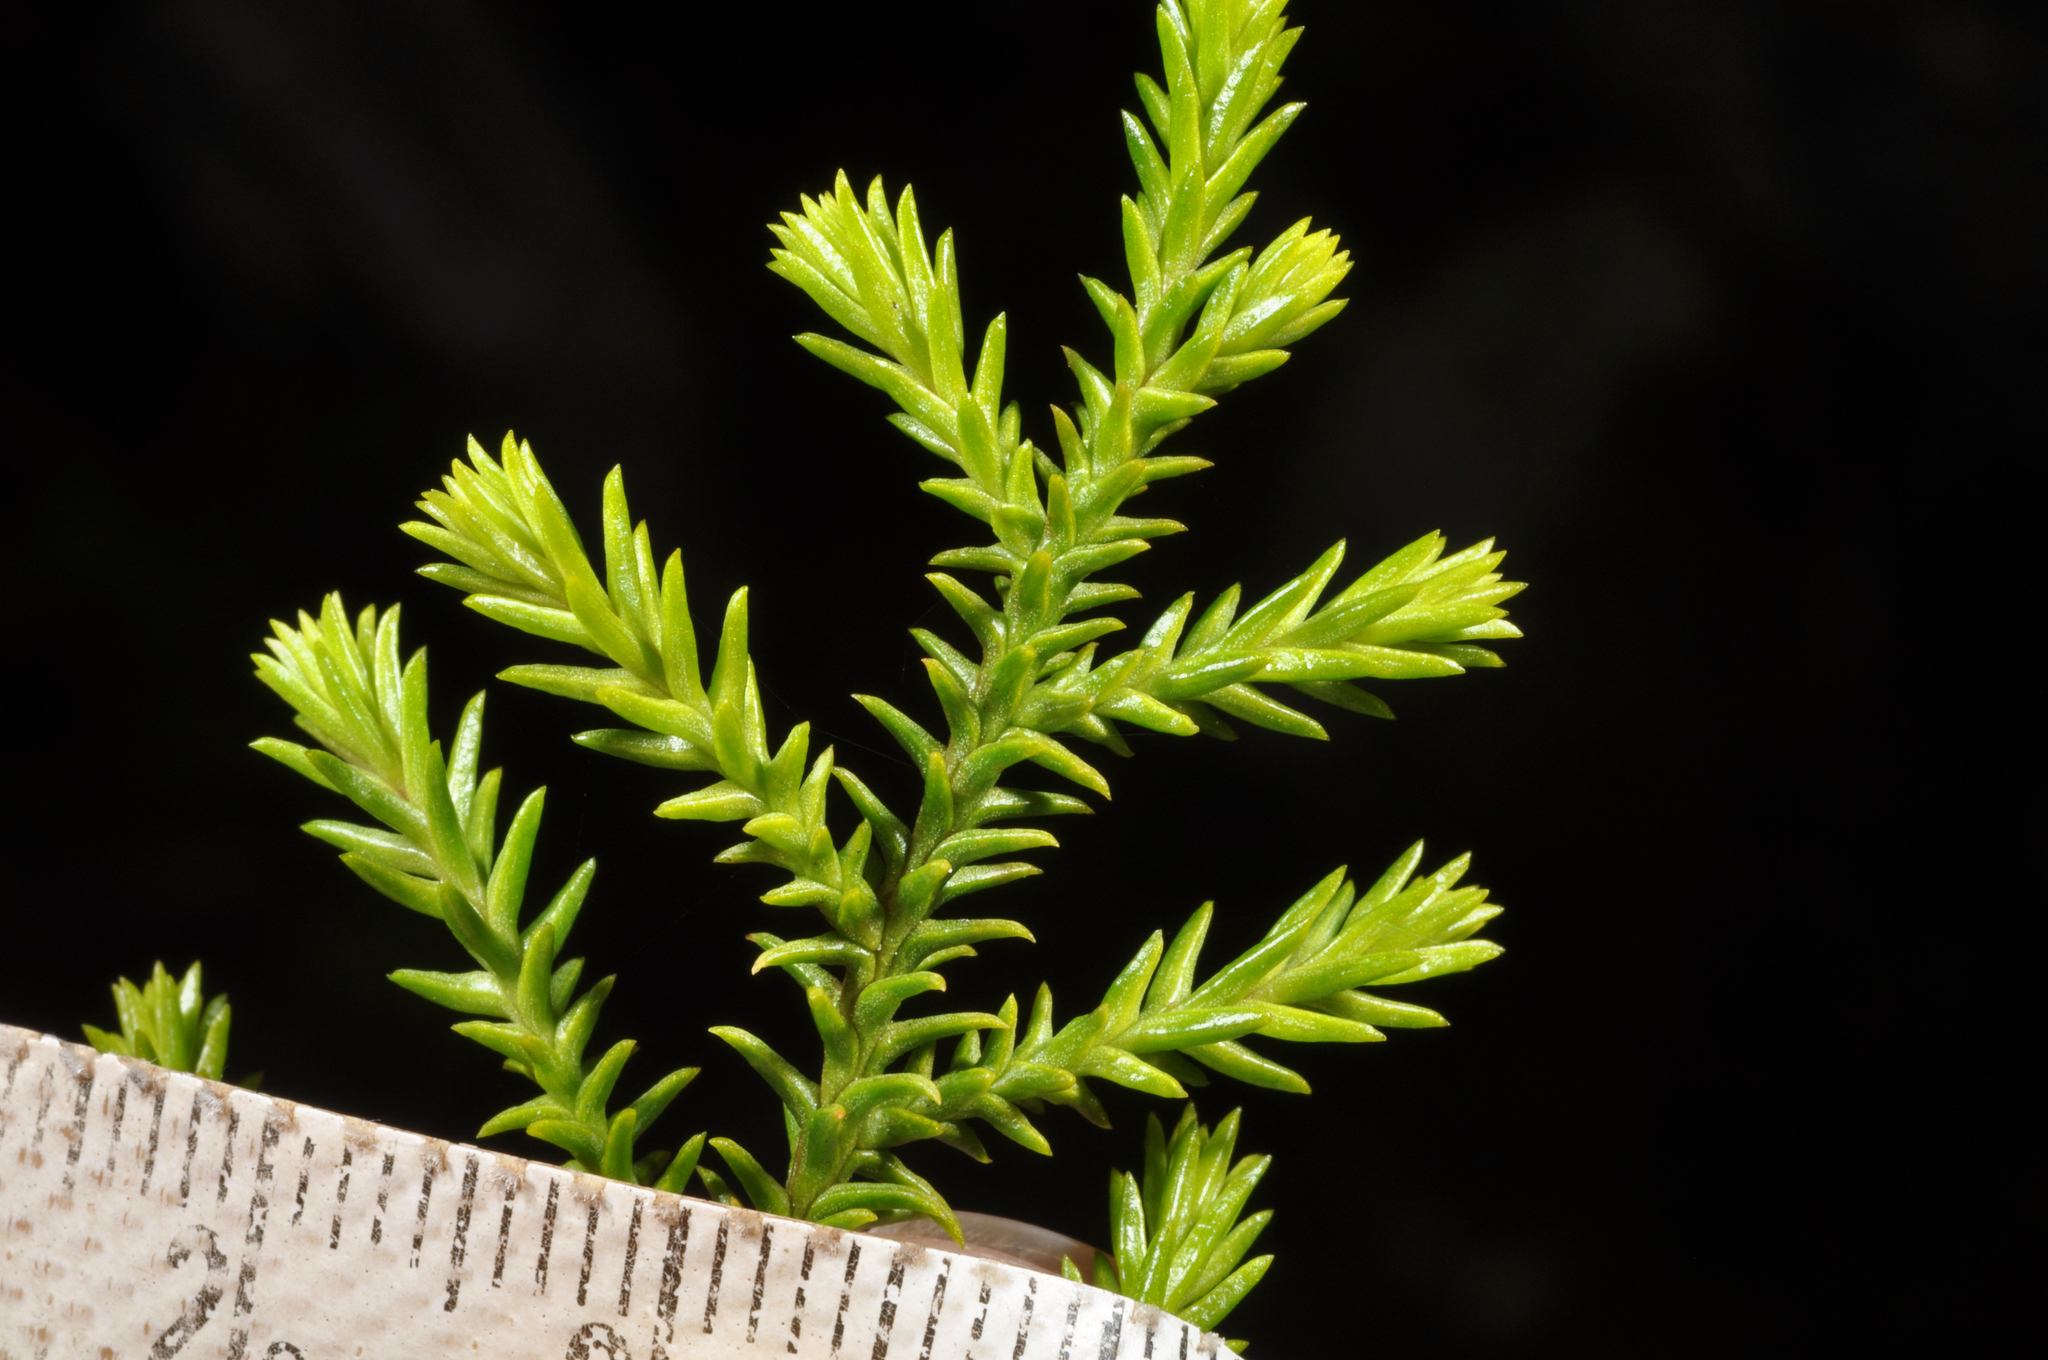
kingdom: Plantae
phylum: Tracheophyta
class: Pinopsida
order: Pinales
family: Podocarpaceae
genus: Lepidothamnus
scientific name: Lepidothamnus intermedius
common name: Yellow silver pine
